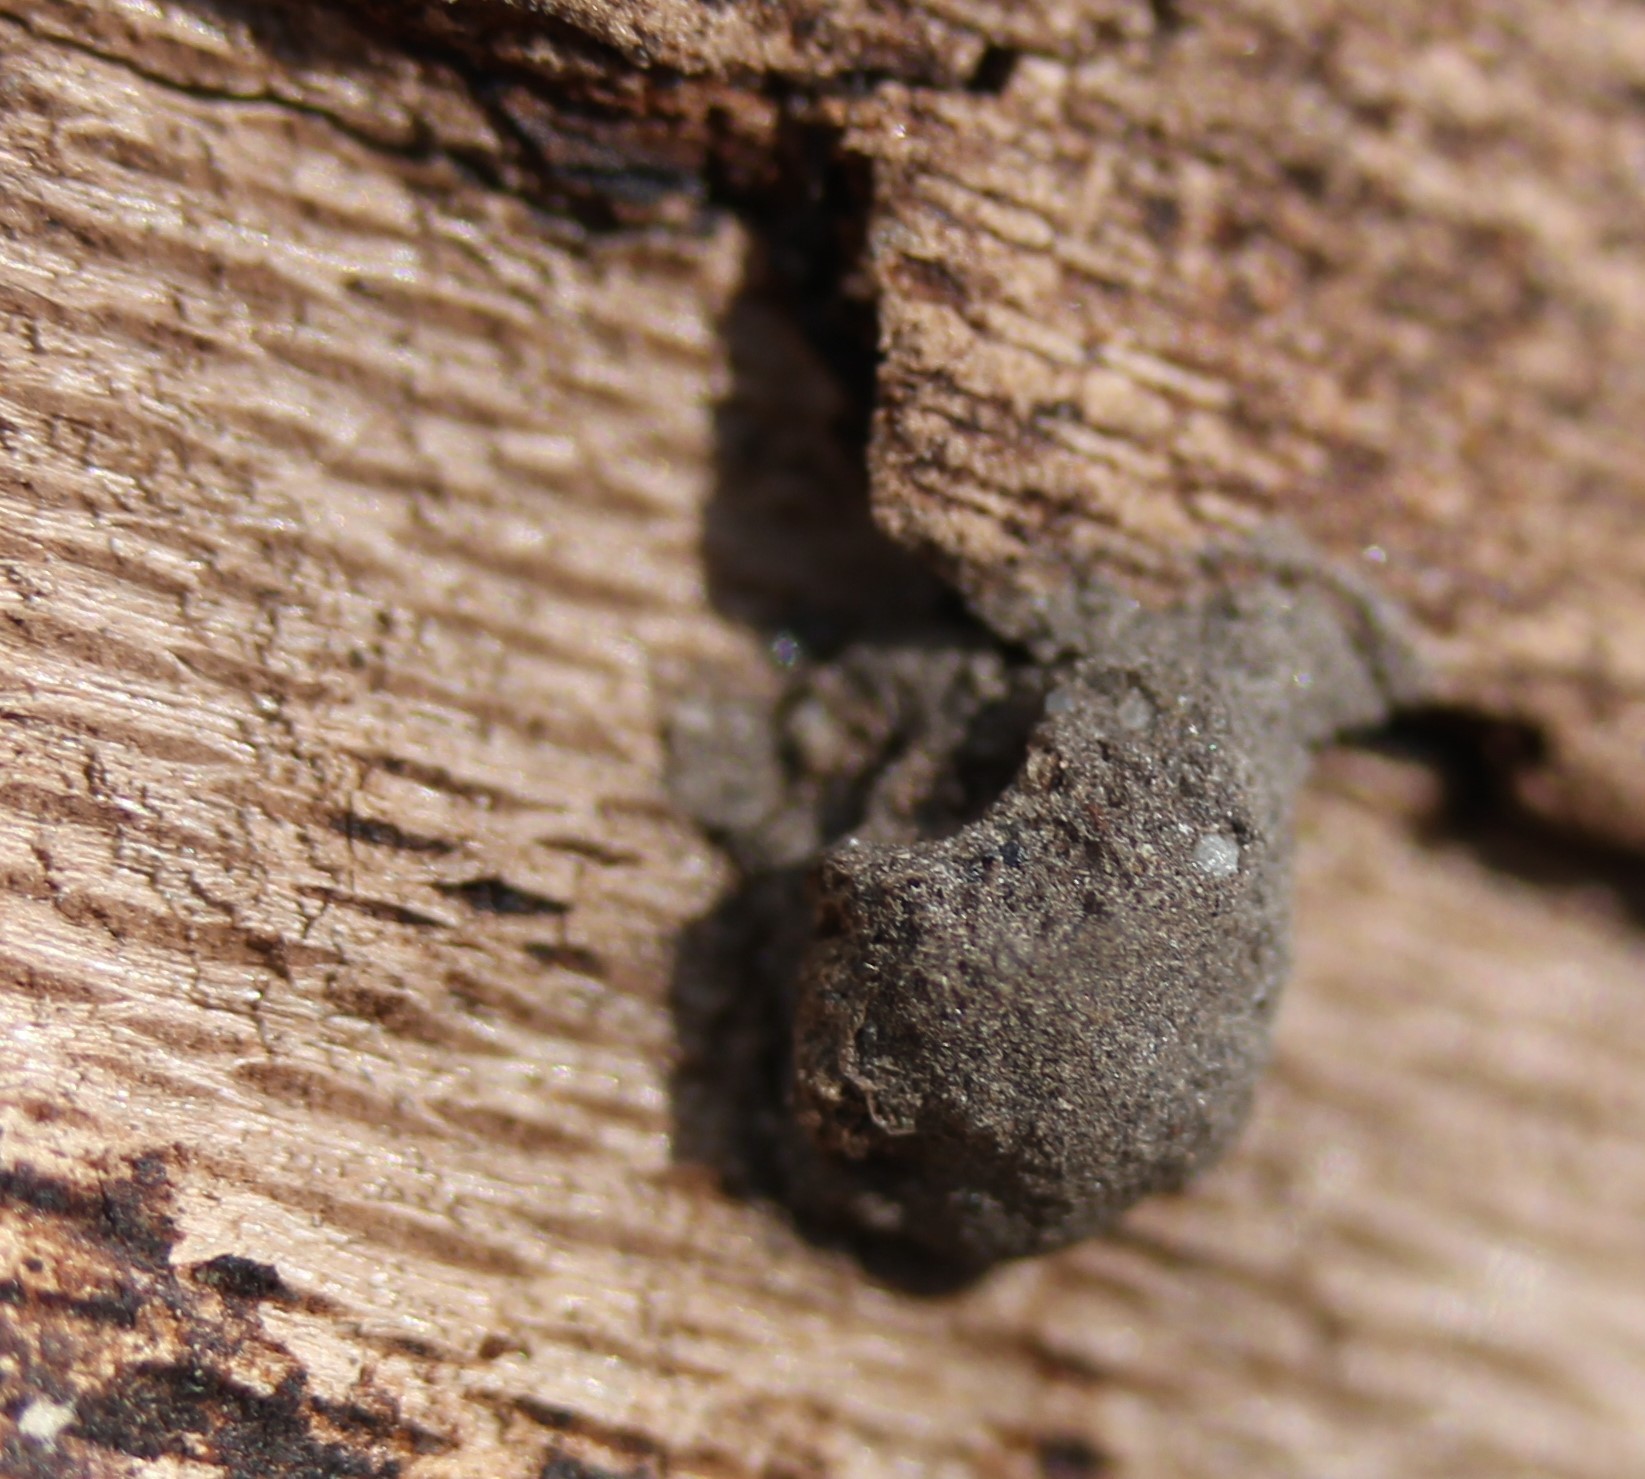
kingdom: Animalia
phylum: Arthropoda
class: Insecta
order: Hymenoptera
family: Vespidae
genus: Eumenes
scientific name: Eumenes
